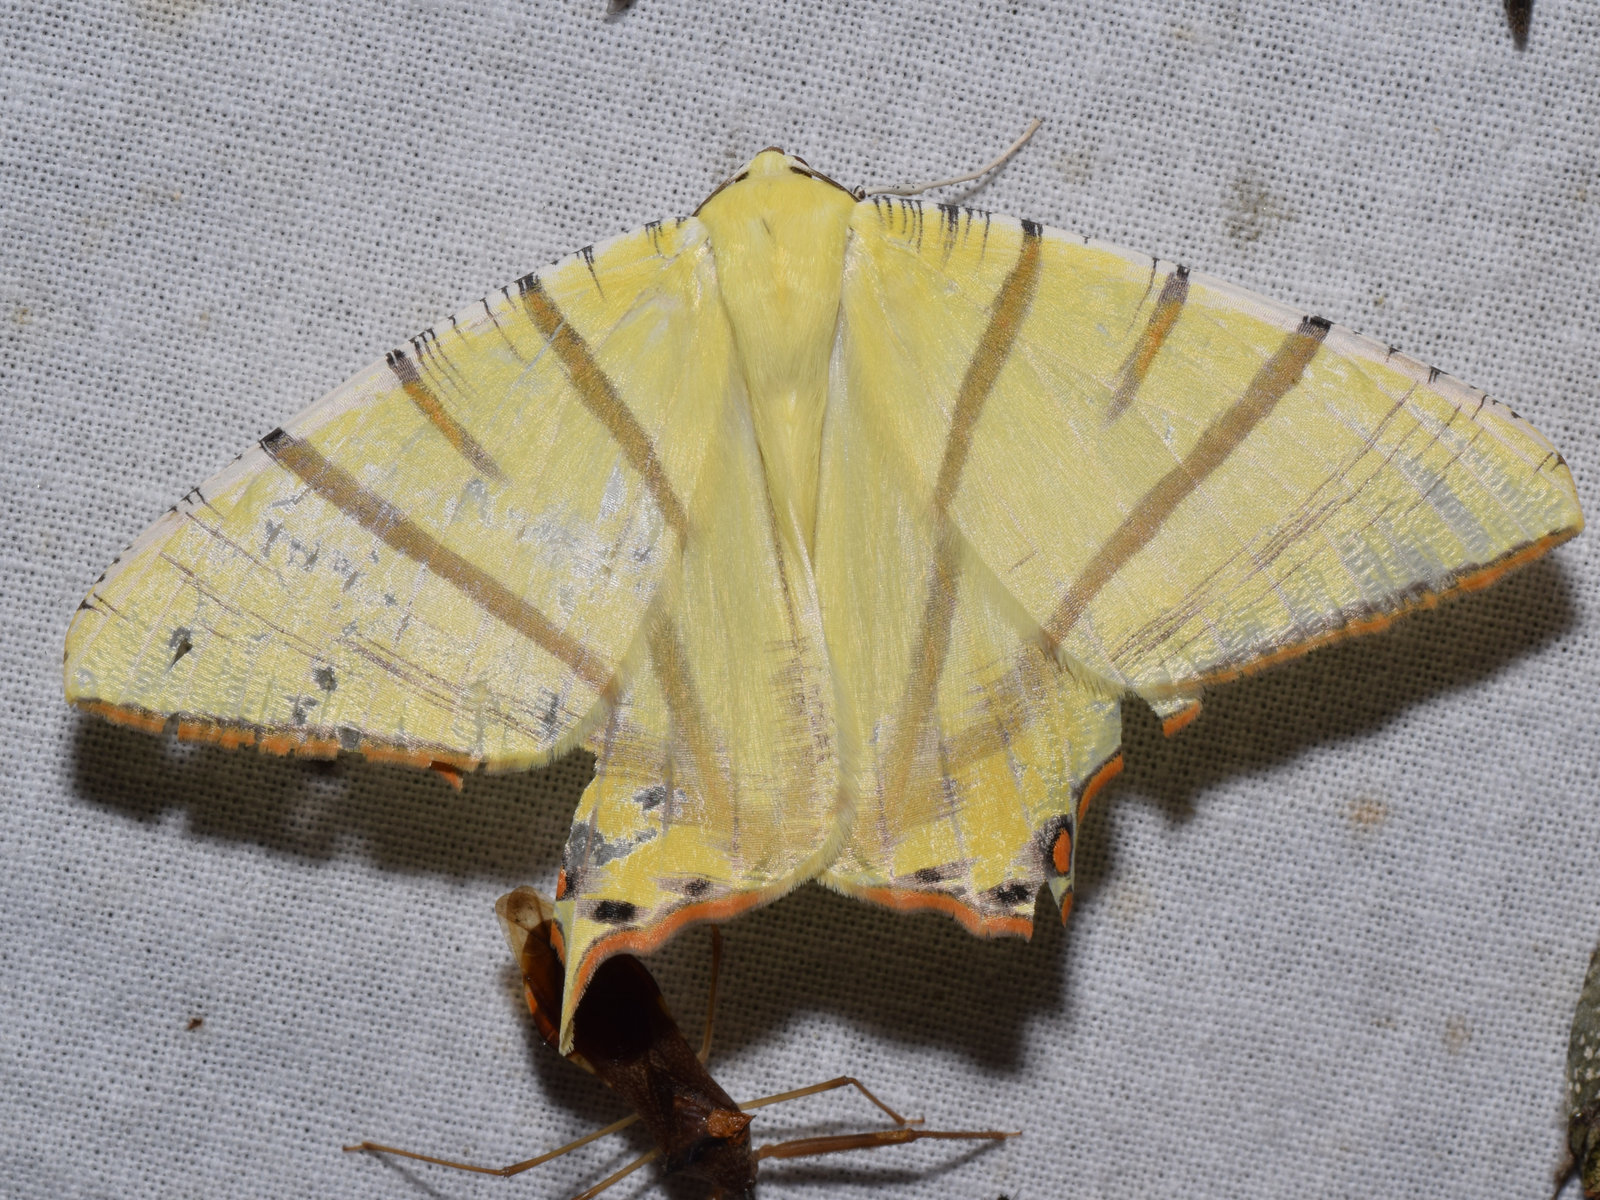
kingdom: Animalia
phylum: Arthropoda
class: Insecta
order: Lepidoptera
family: Geometridae
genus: Ourapteryx
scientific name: Ourapteryx primularis
